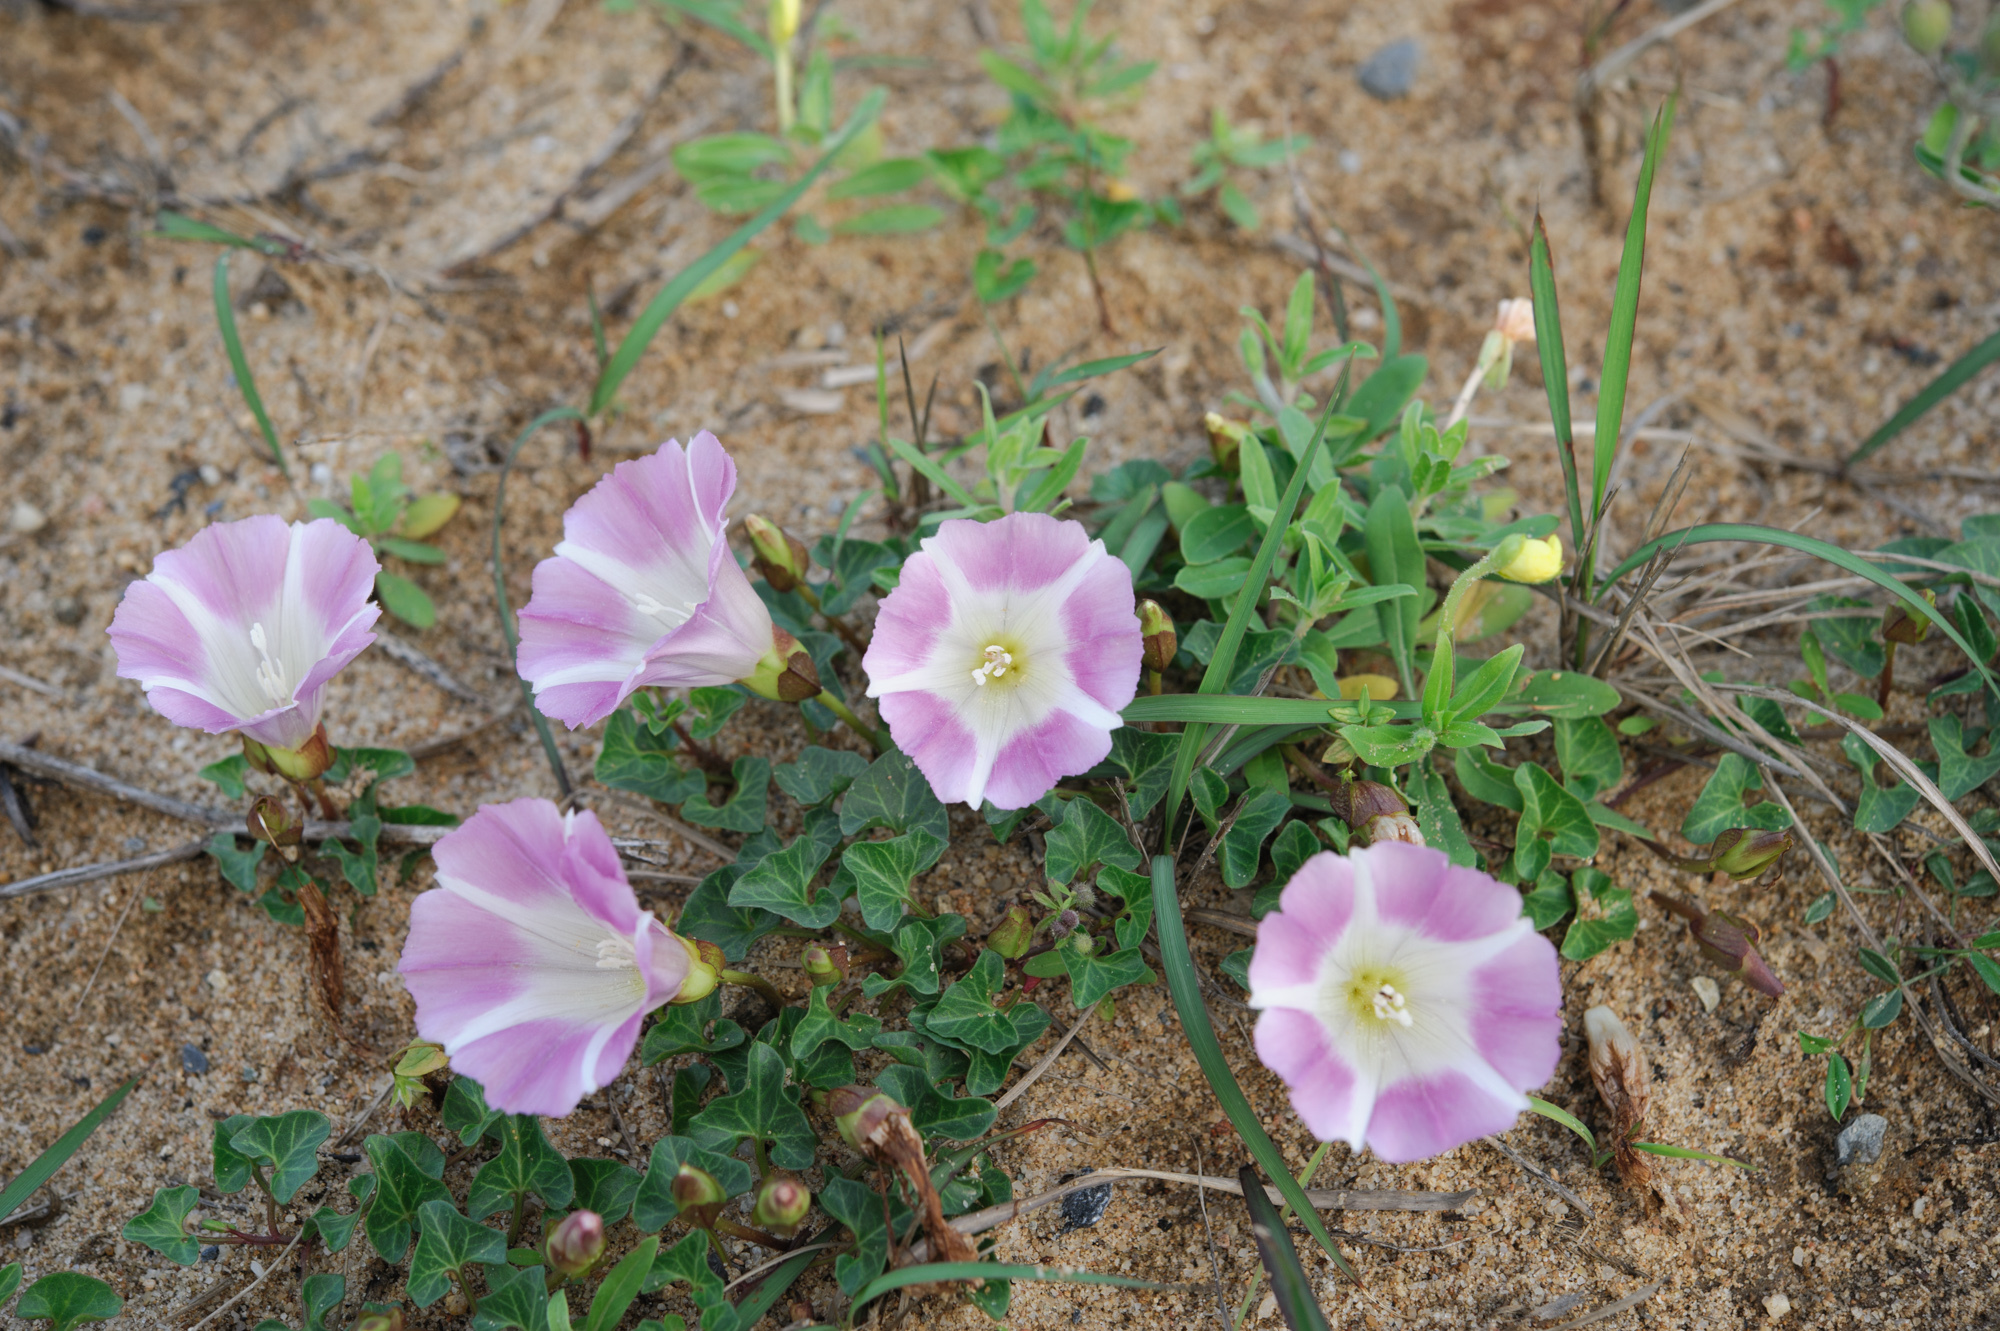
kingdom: Plantae
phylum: Tracheophyta
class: Magnoliopsida
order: Solanales
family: Convolvulaceae
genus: Calystegia
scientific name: Calystegia soldanella
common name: Sea bindweed
